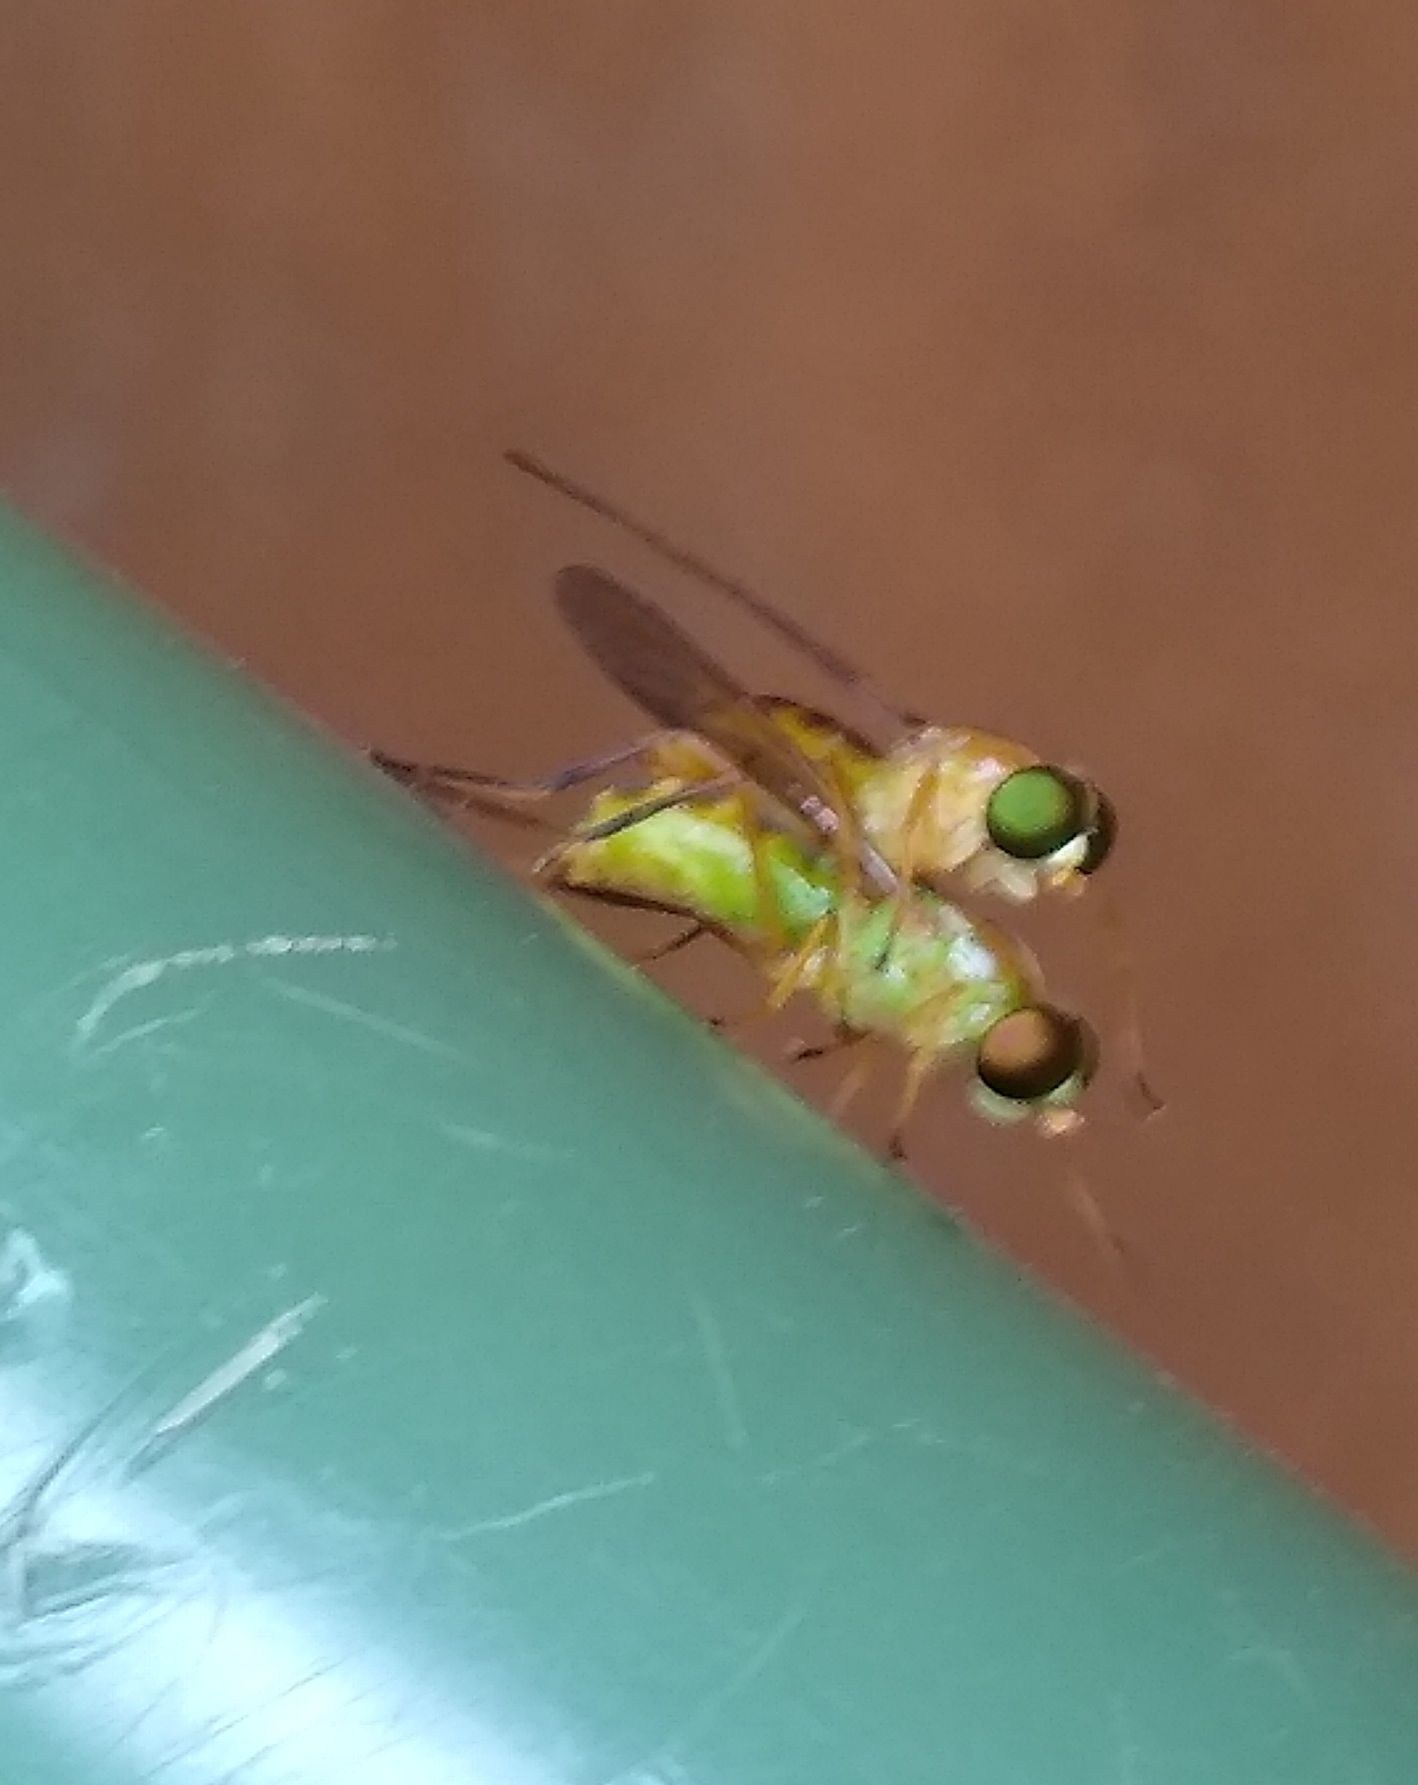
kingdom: Animalia
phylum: Arthropoda
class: Insecta
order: Diptera
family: Stratiomyidae
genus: Ptecticus
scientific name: Ptecticus trivittatus
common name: Compost fly
